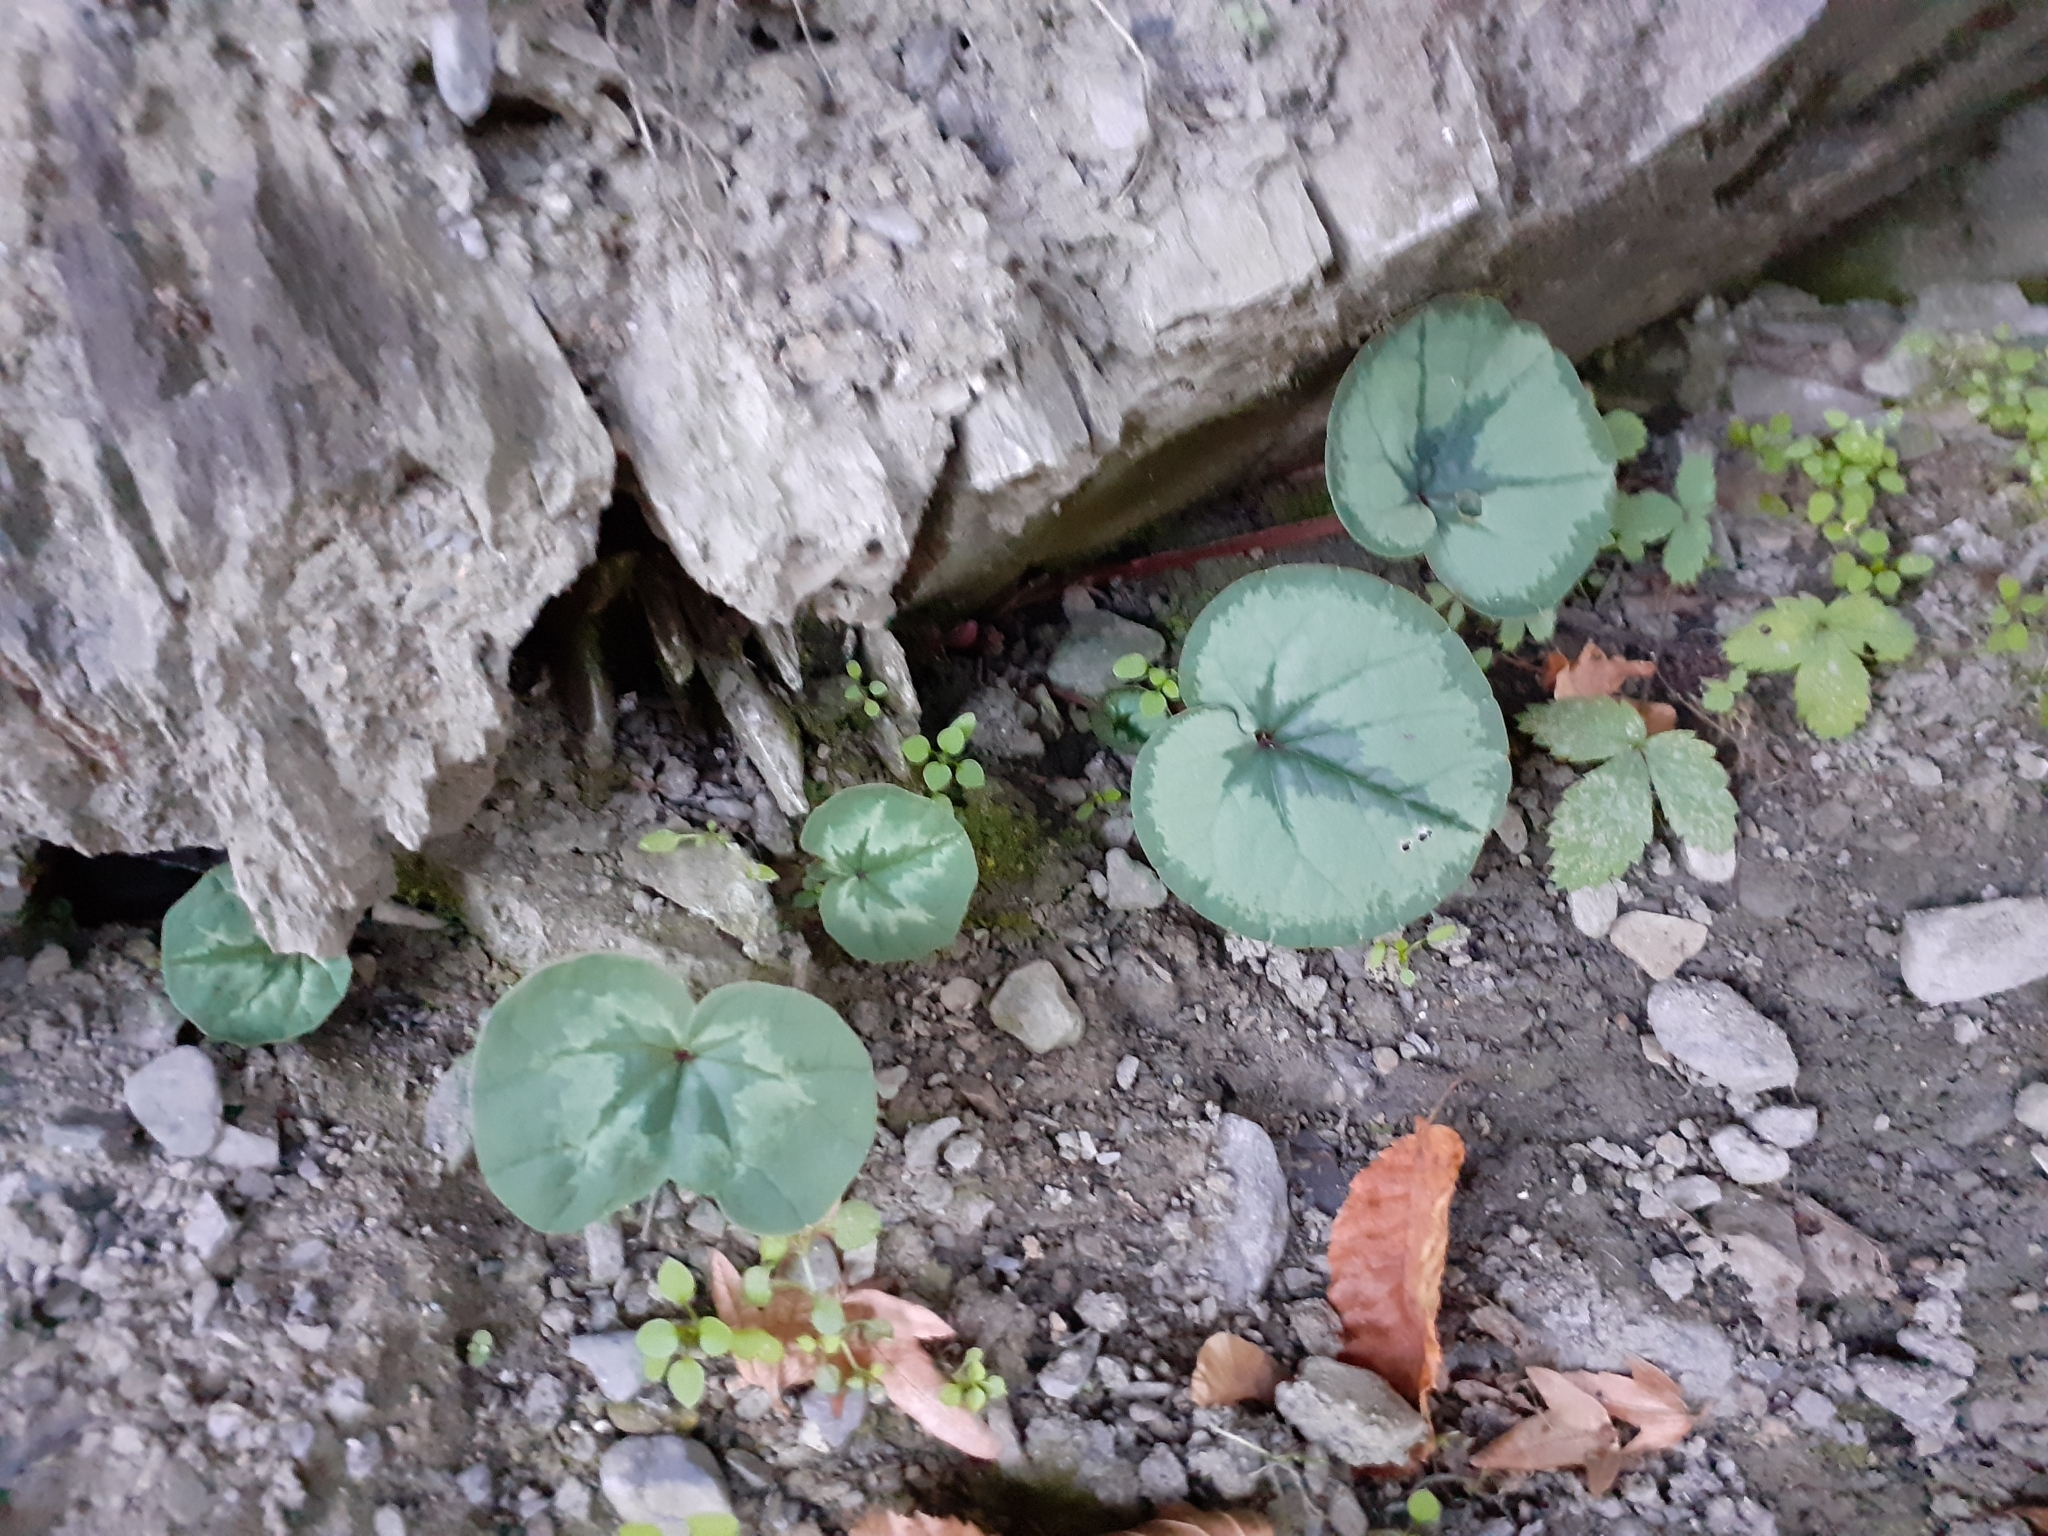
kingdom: Plantae
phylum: Tracheophyta
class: Magnoliopsida
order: Ericales
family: Primulaceae
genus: Cyclamen
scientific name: Cyclamen coum
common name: Eastern sowbread
